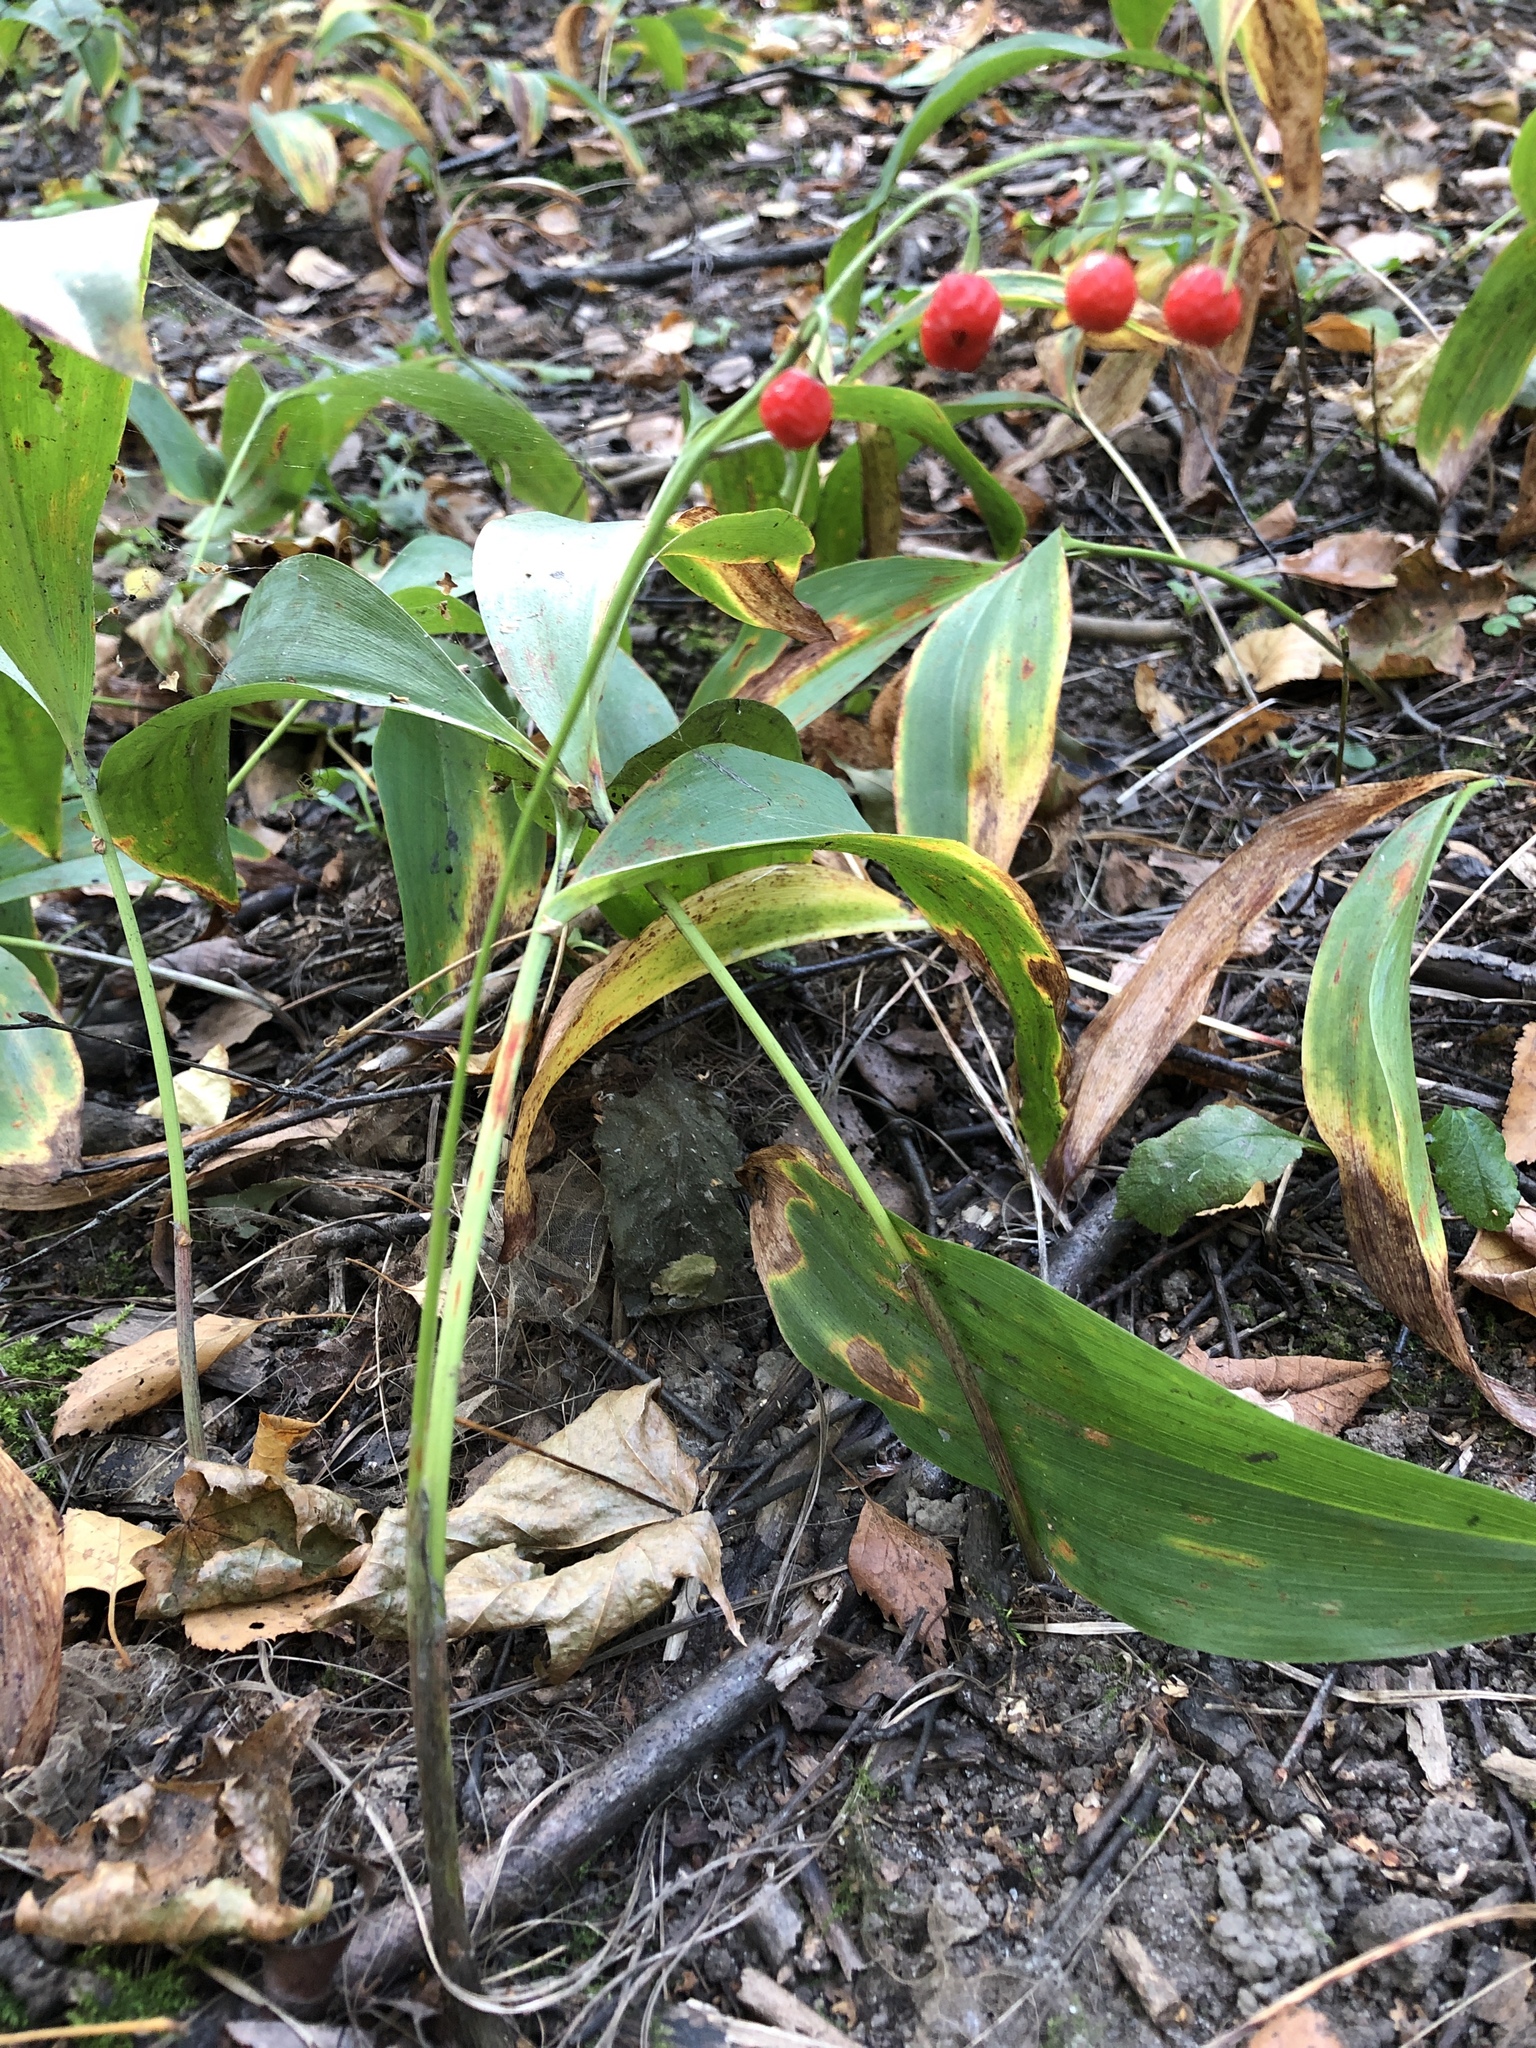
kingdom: Plantae
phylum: Tracheophyta
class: Liliopsida
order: Asparagales
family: Asparagaceae
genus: Convallaria
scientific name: Convallaria majalis
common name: Lily-of-the-valley
